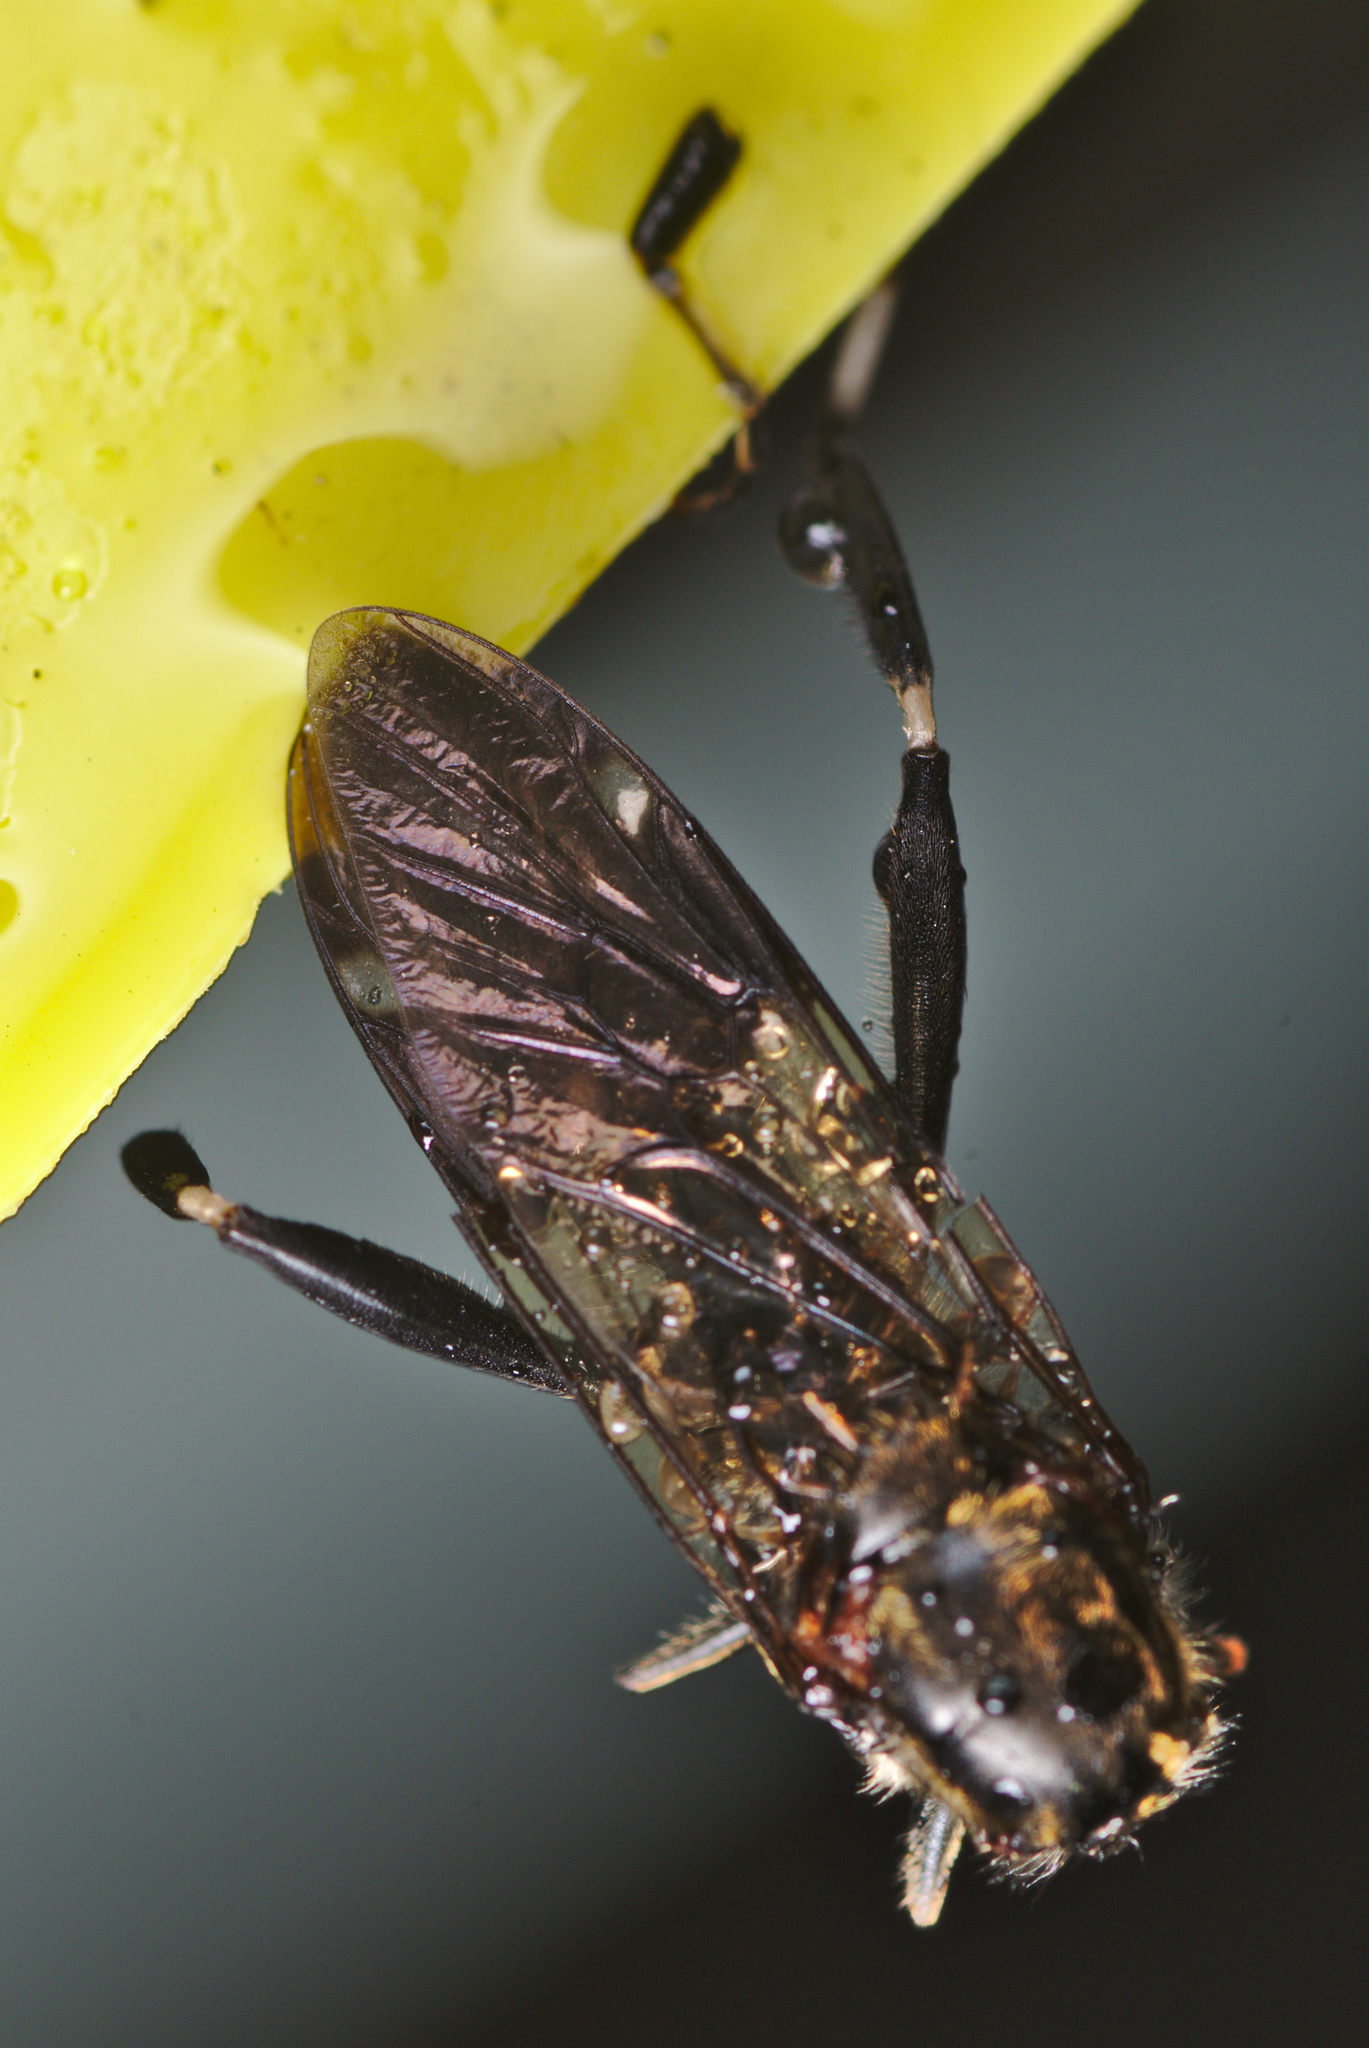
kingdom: Animalia
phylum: Arthropoda
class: Insecta
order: Diptera
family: Stratiomyidae
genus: Exaireta
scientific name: Exaireta spinigera
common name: Blue soldier fly
